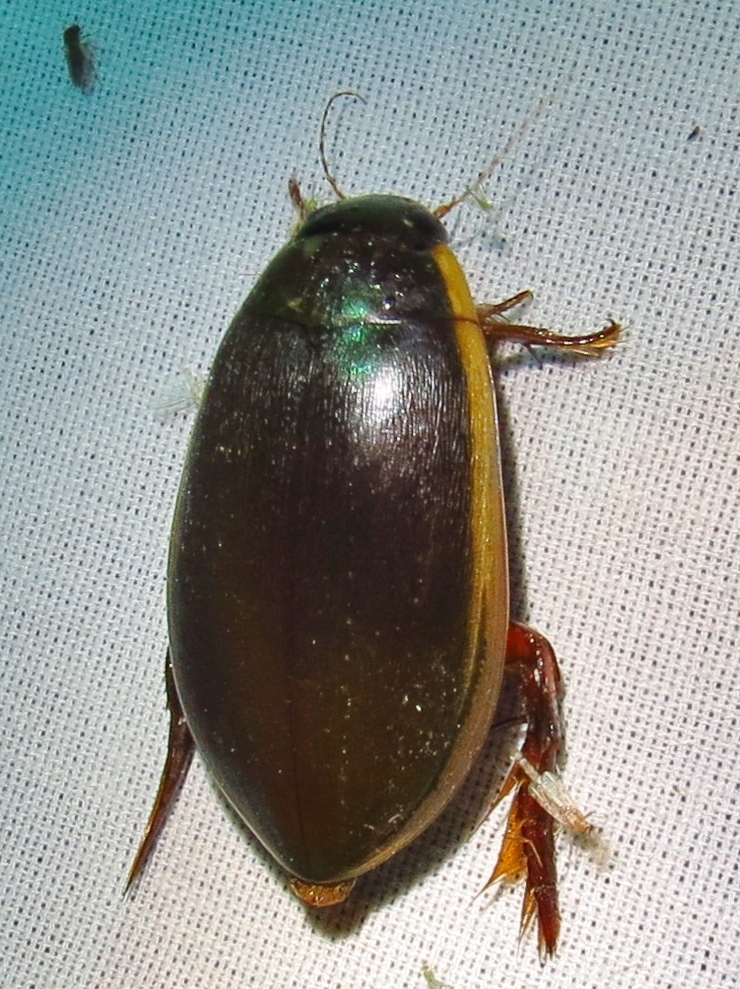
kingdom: Animalia
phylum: Arthropoda
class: Insecta
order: Coleoptera
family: Dytiscidae
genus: Cybister
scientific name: Cybister fimbriolatus
